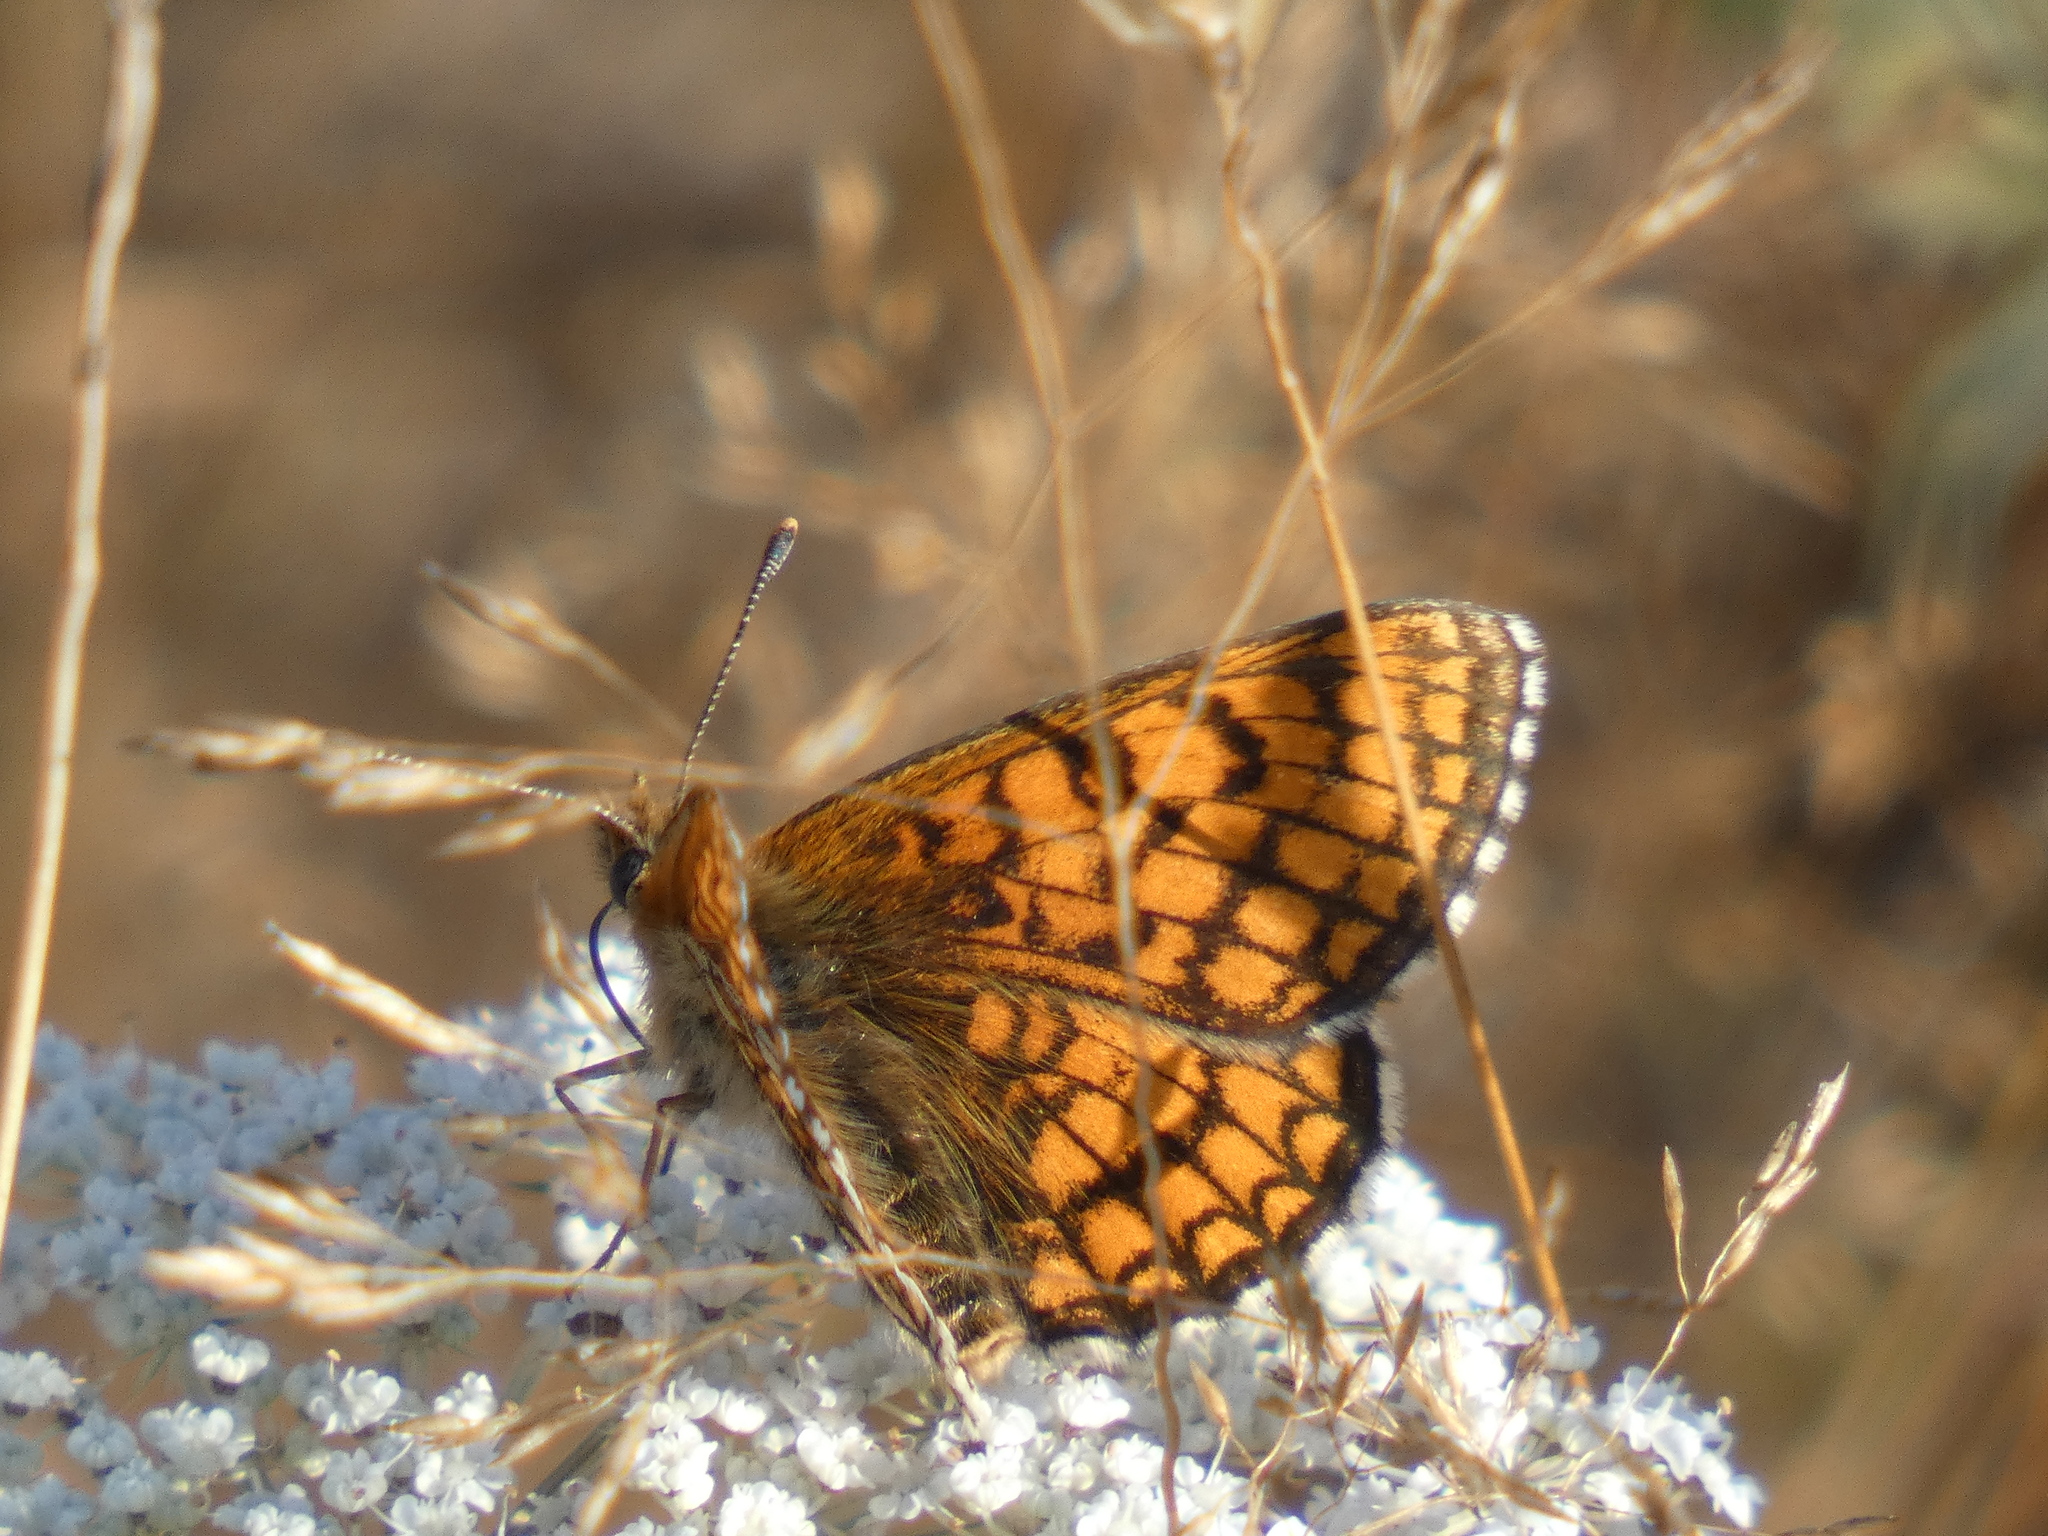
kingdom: Animalia
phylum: Arthropoda
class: Insecta
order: Lepidoptera
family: Nymphalidae
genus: Mellicta
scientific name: Mellicta parthenoides
